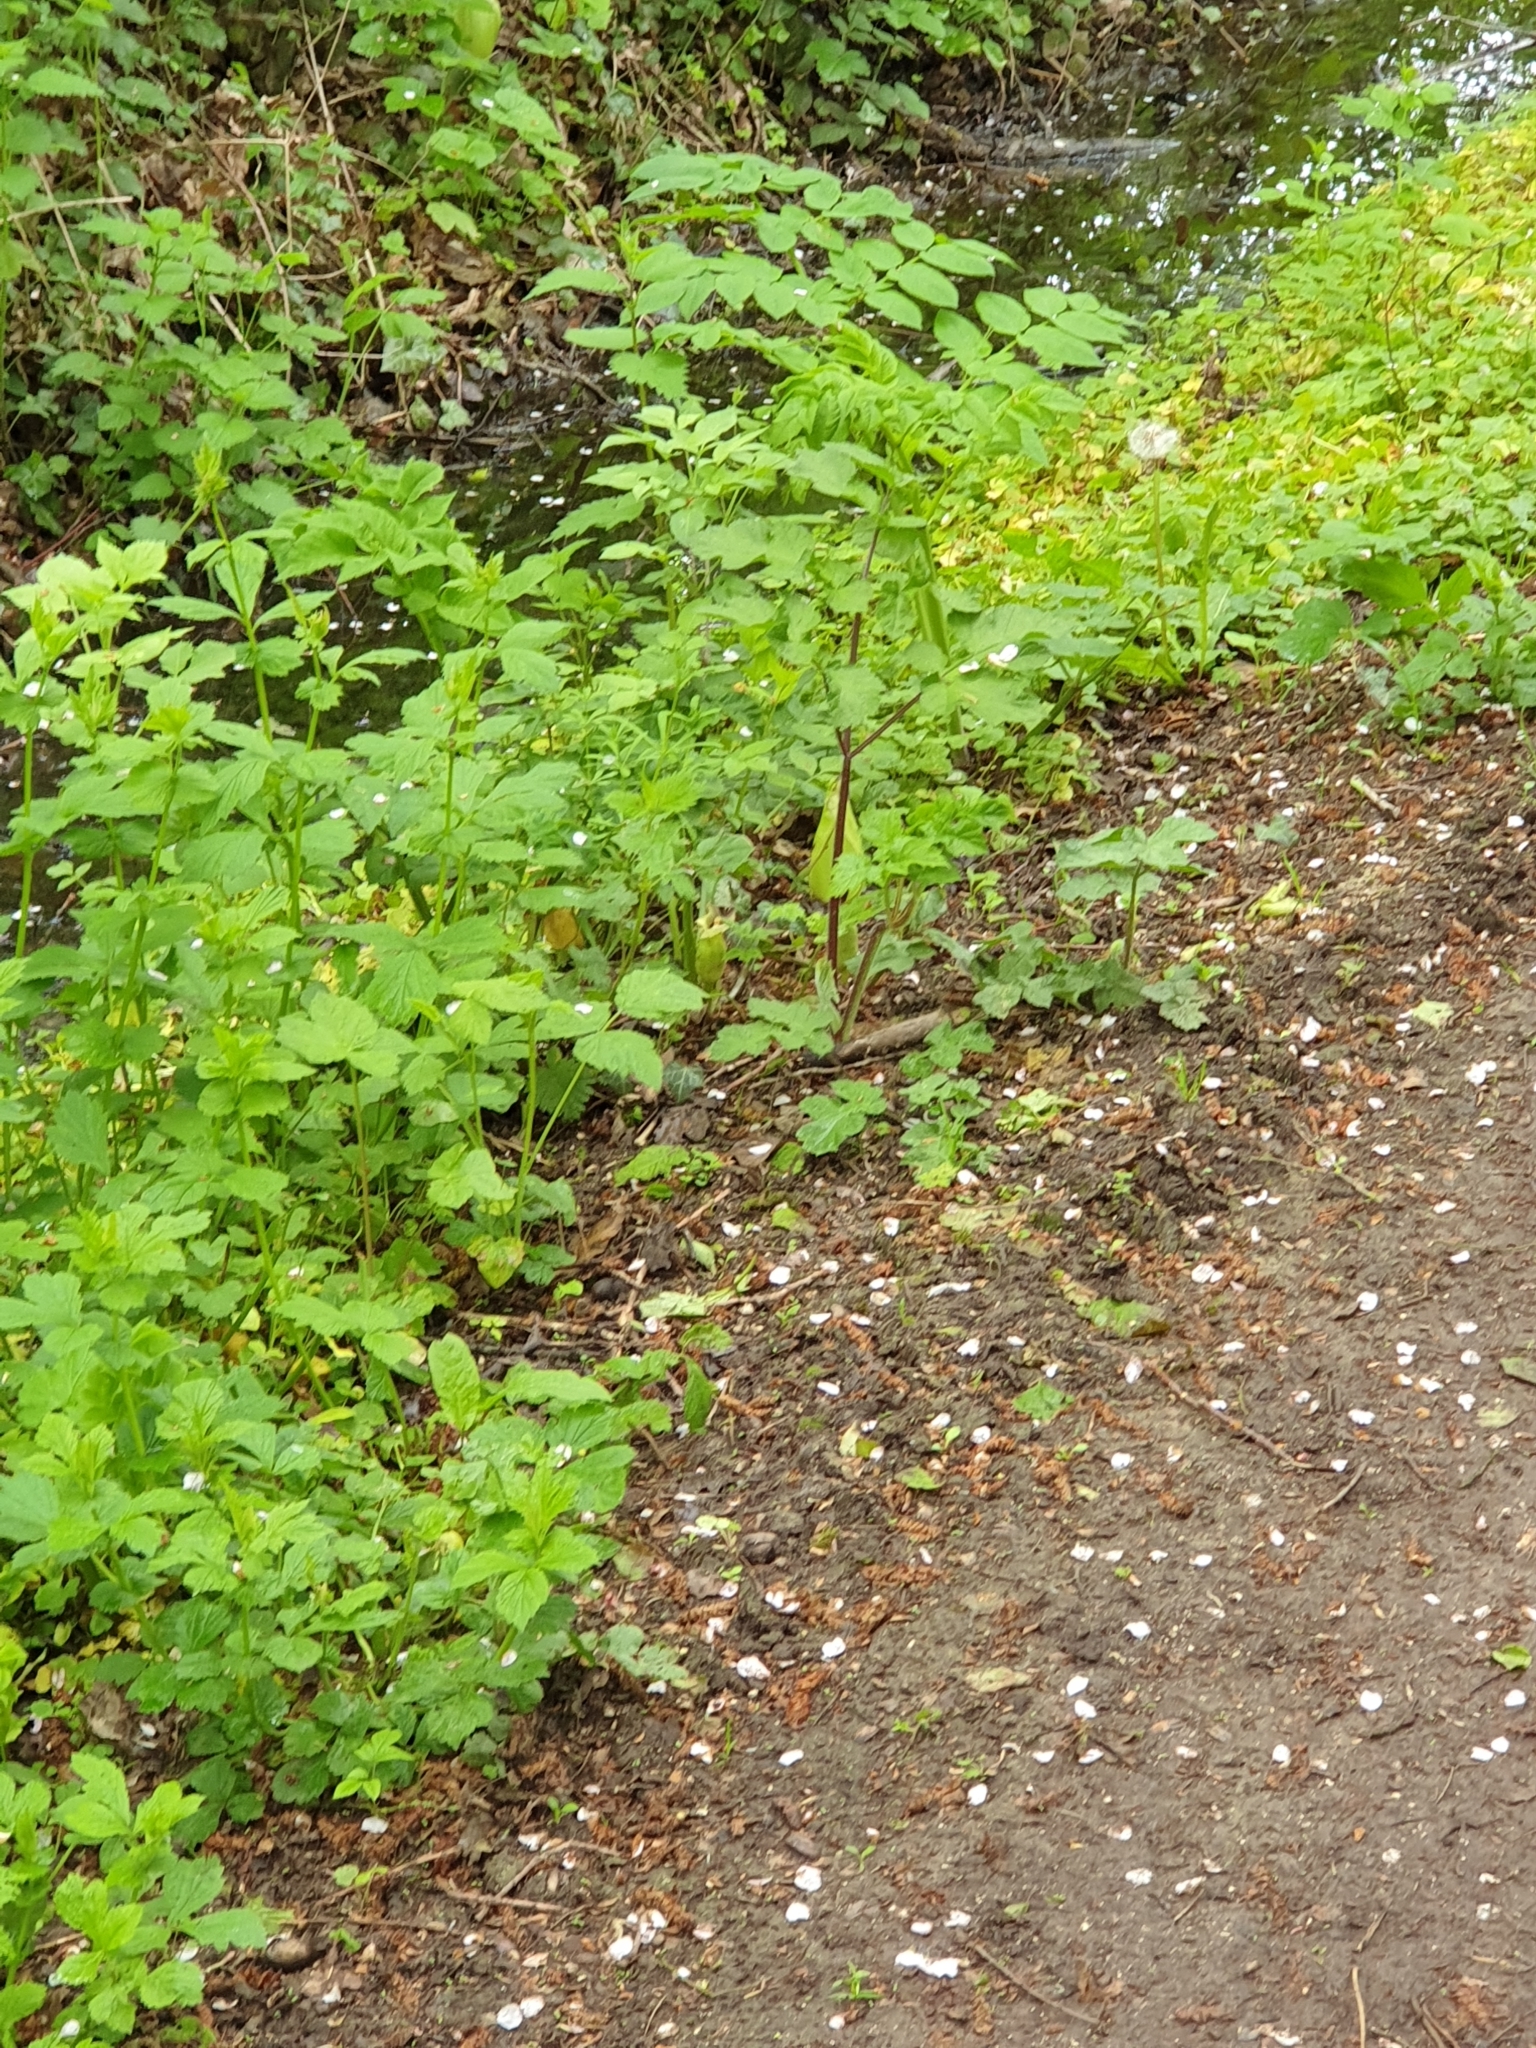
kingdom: Plantae
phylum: Tracheophyta
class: Liliopsida
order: Alismatales
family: Araceae
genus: Arum
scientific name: Arum maculatum
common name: Lords-and-ladies
